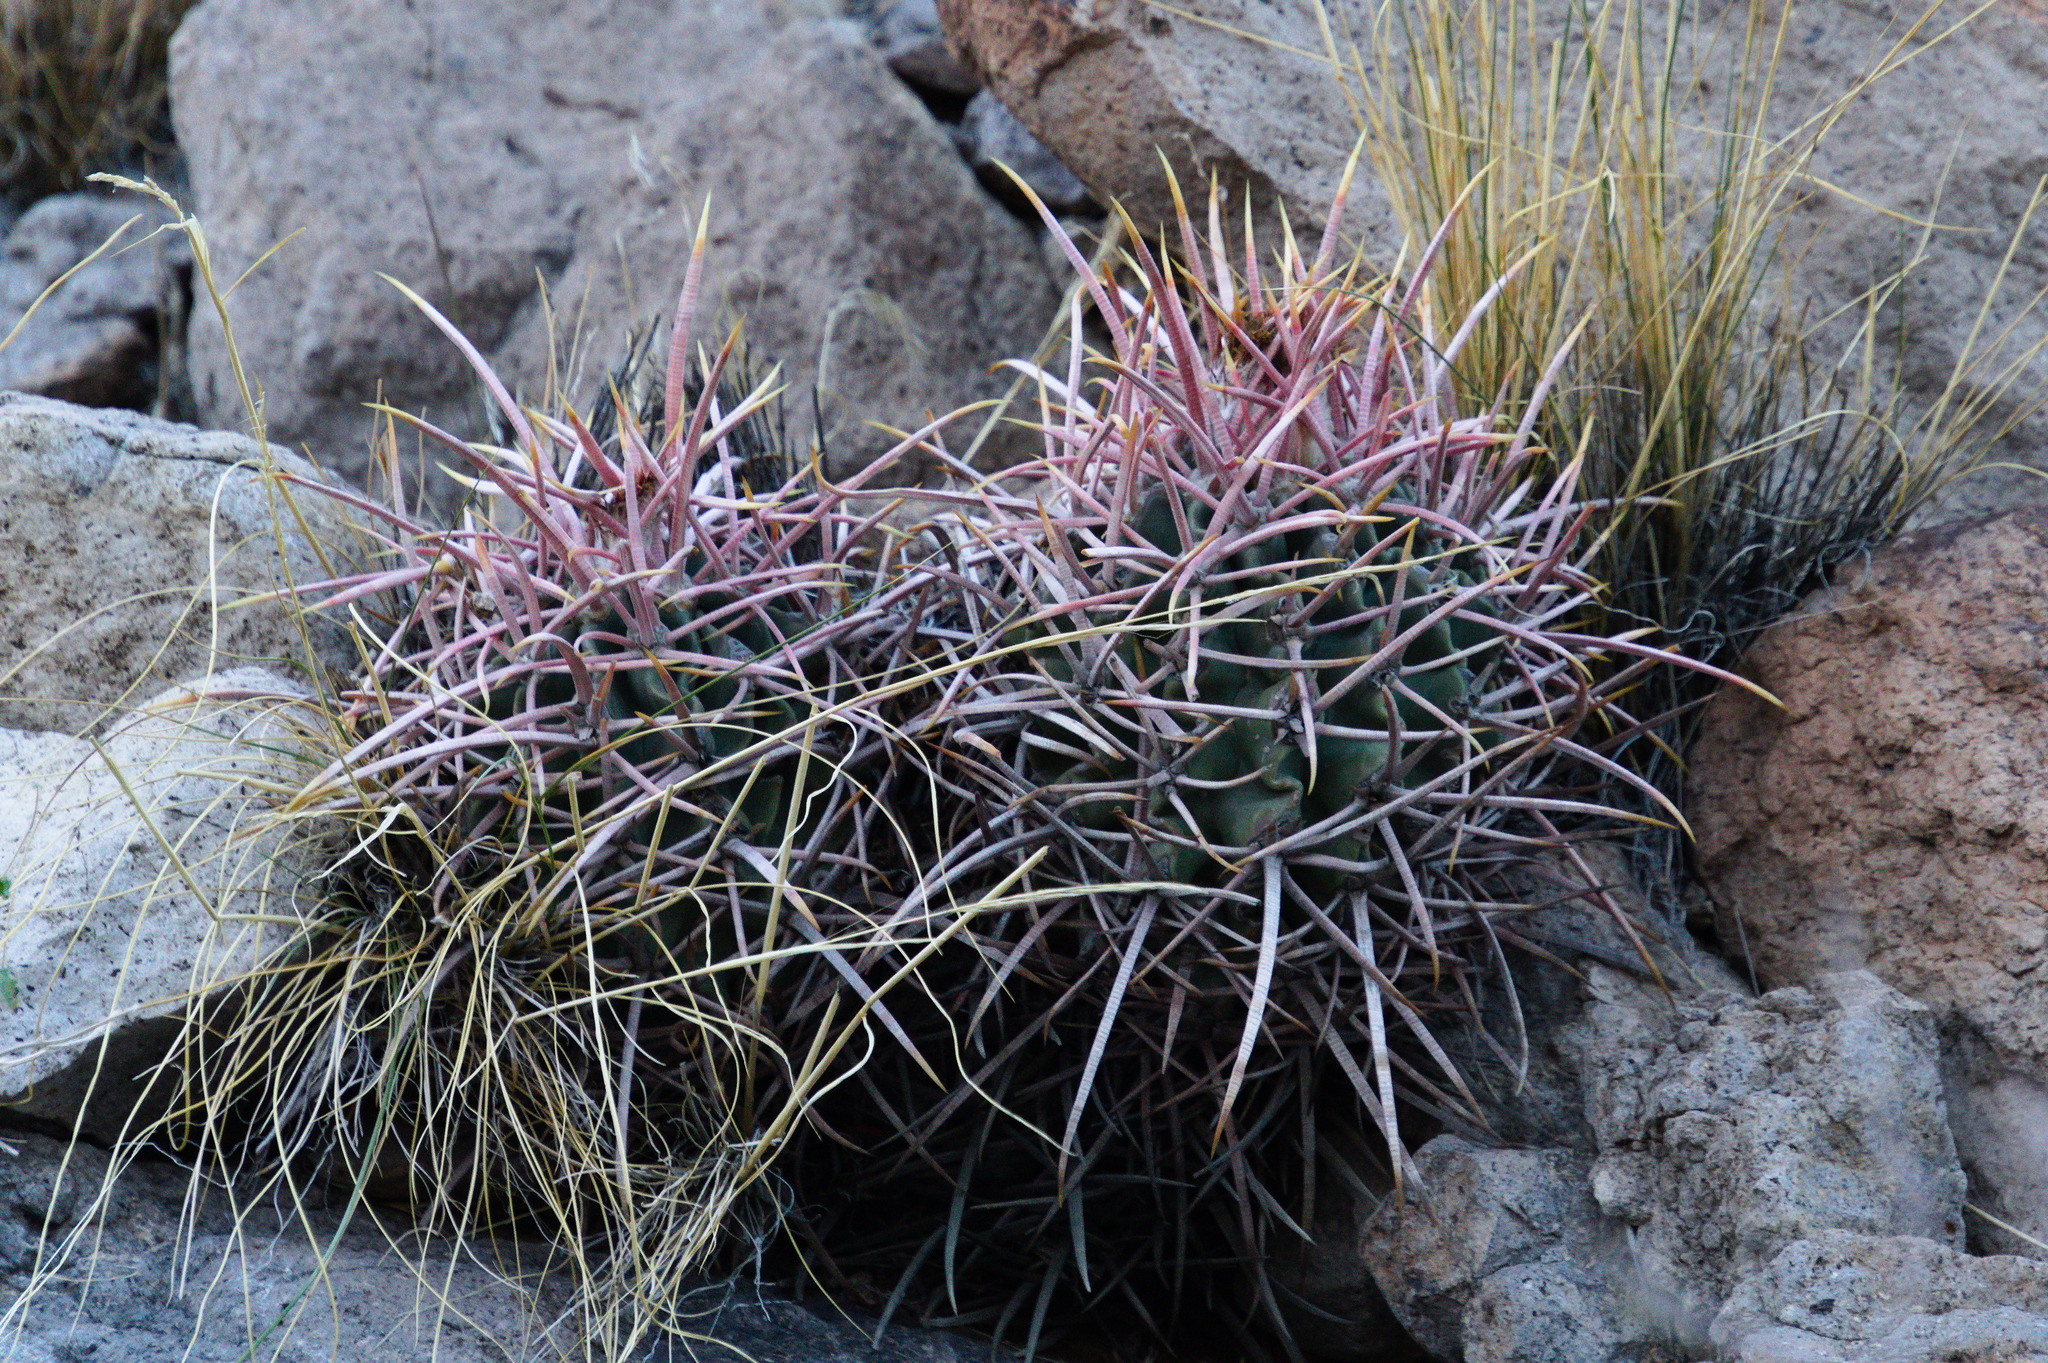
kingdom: Plantae
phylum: Tracheophyta
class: Magnoliopsida
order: Caryophyllales
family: Cactaceae
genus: Echinocactus
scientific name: Echinocactus polycephalus
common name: Cottontop cactus
